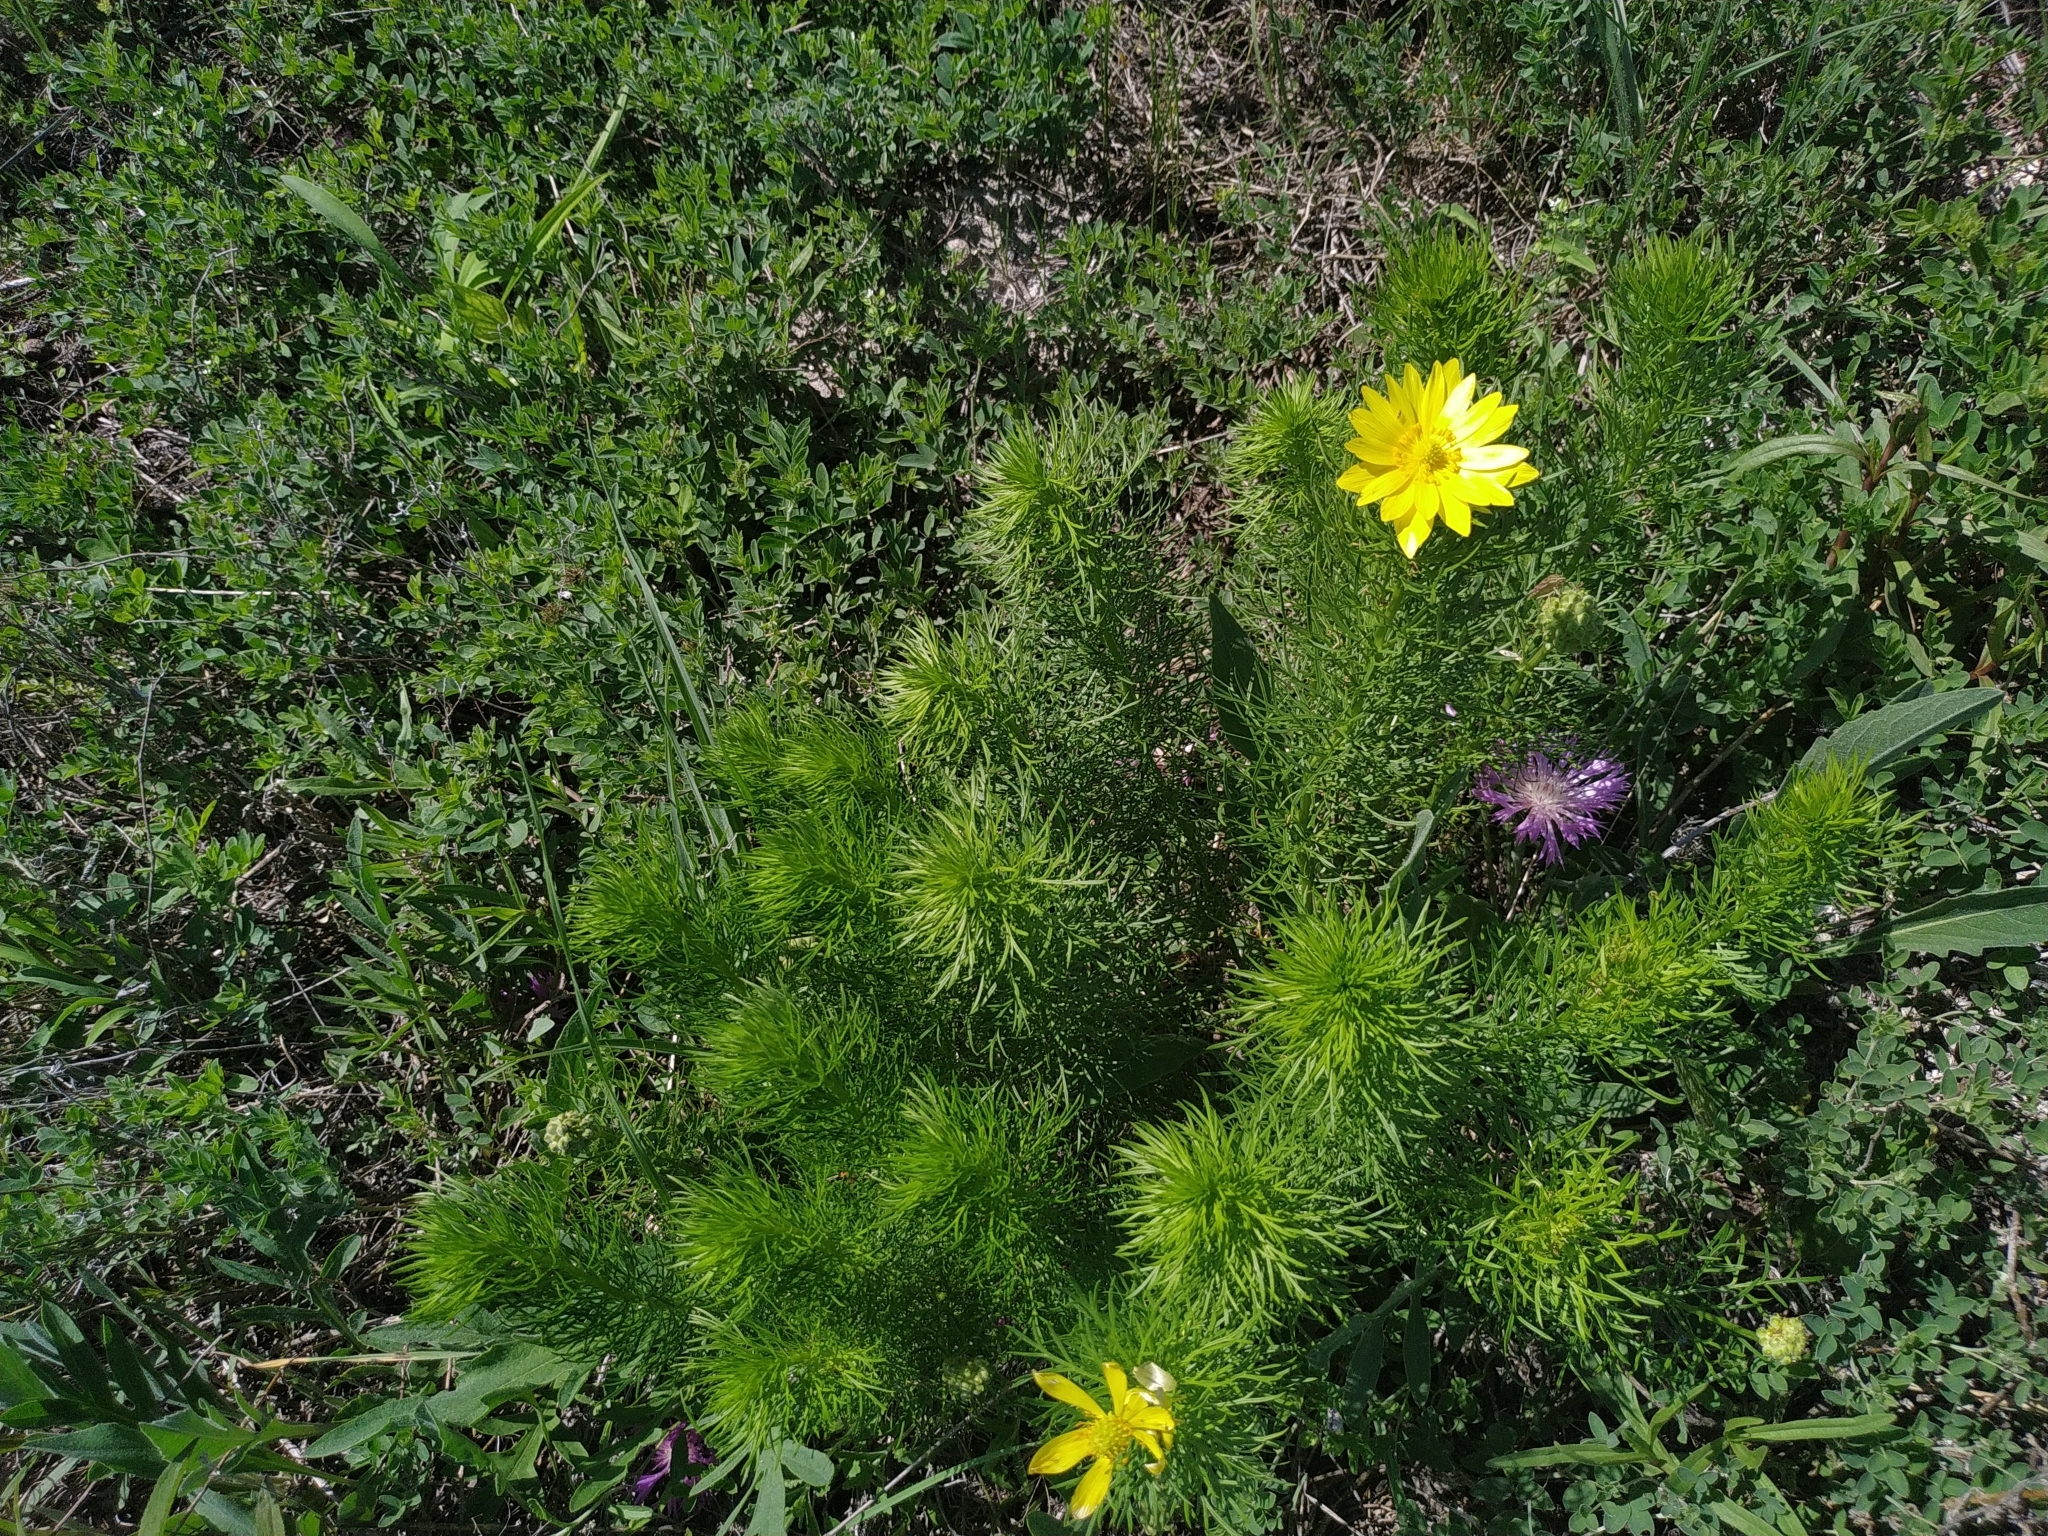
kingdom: Plantae
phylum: Tracheophyta
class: Magnoliopsida
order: Ranunculales
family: Ranunculaceae
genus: Adonis
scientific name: Adonis vernalis
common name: Yellow pheasants-eye
